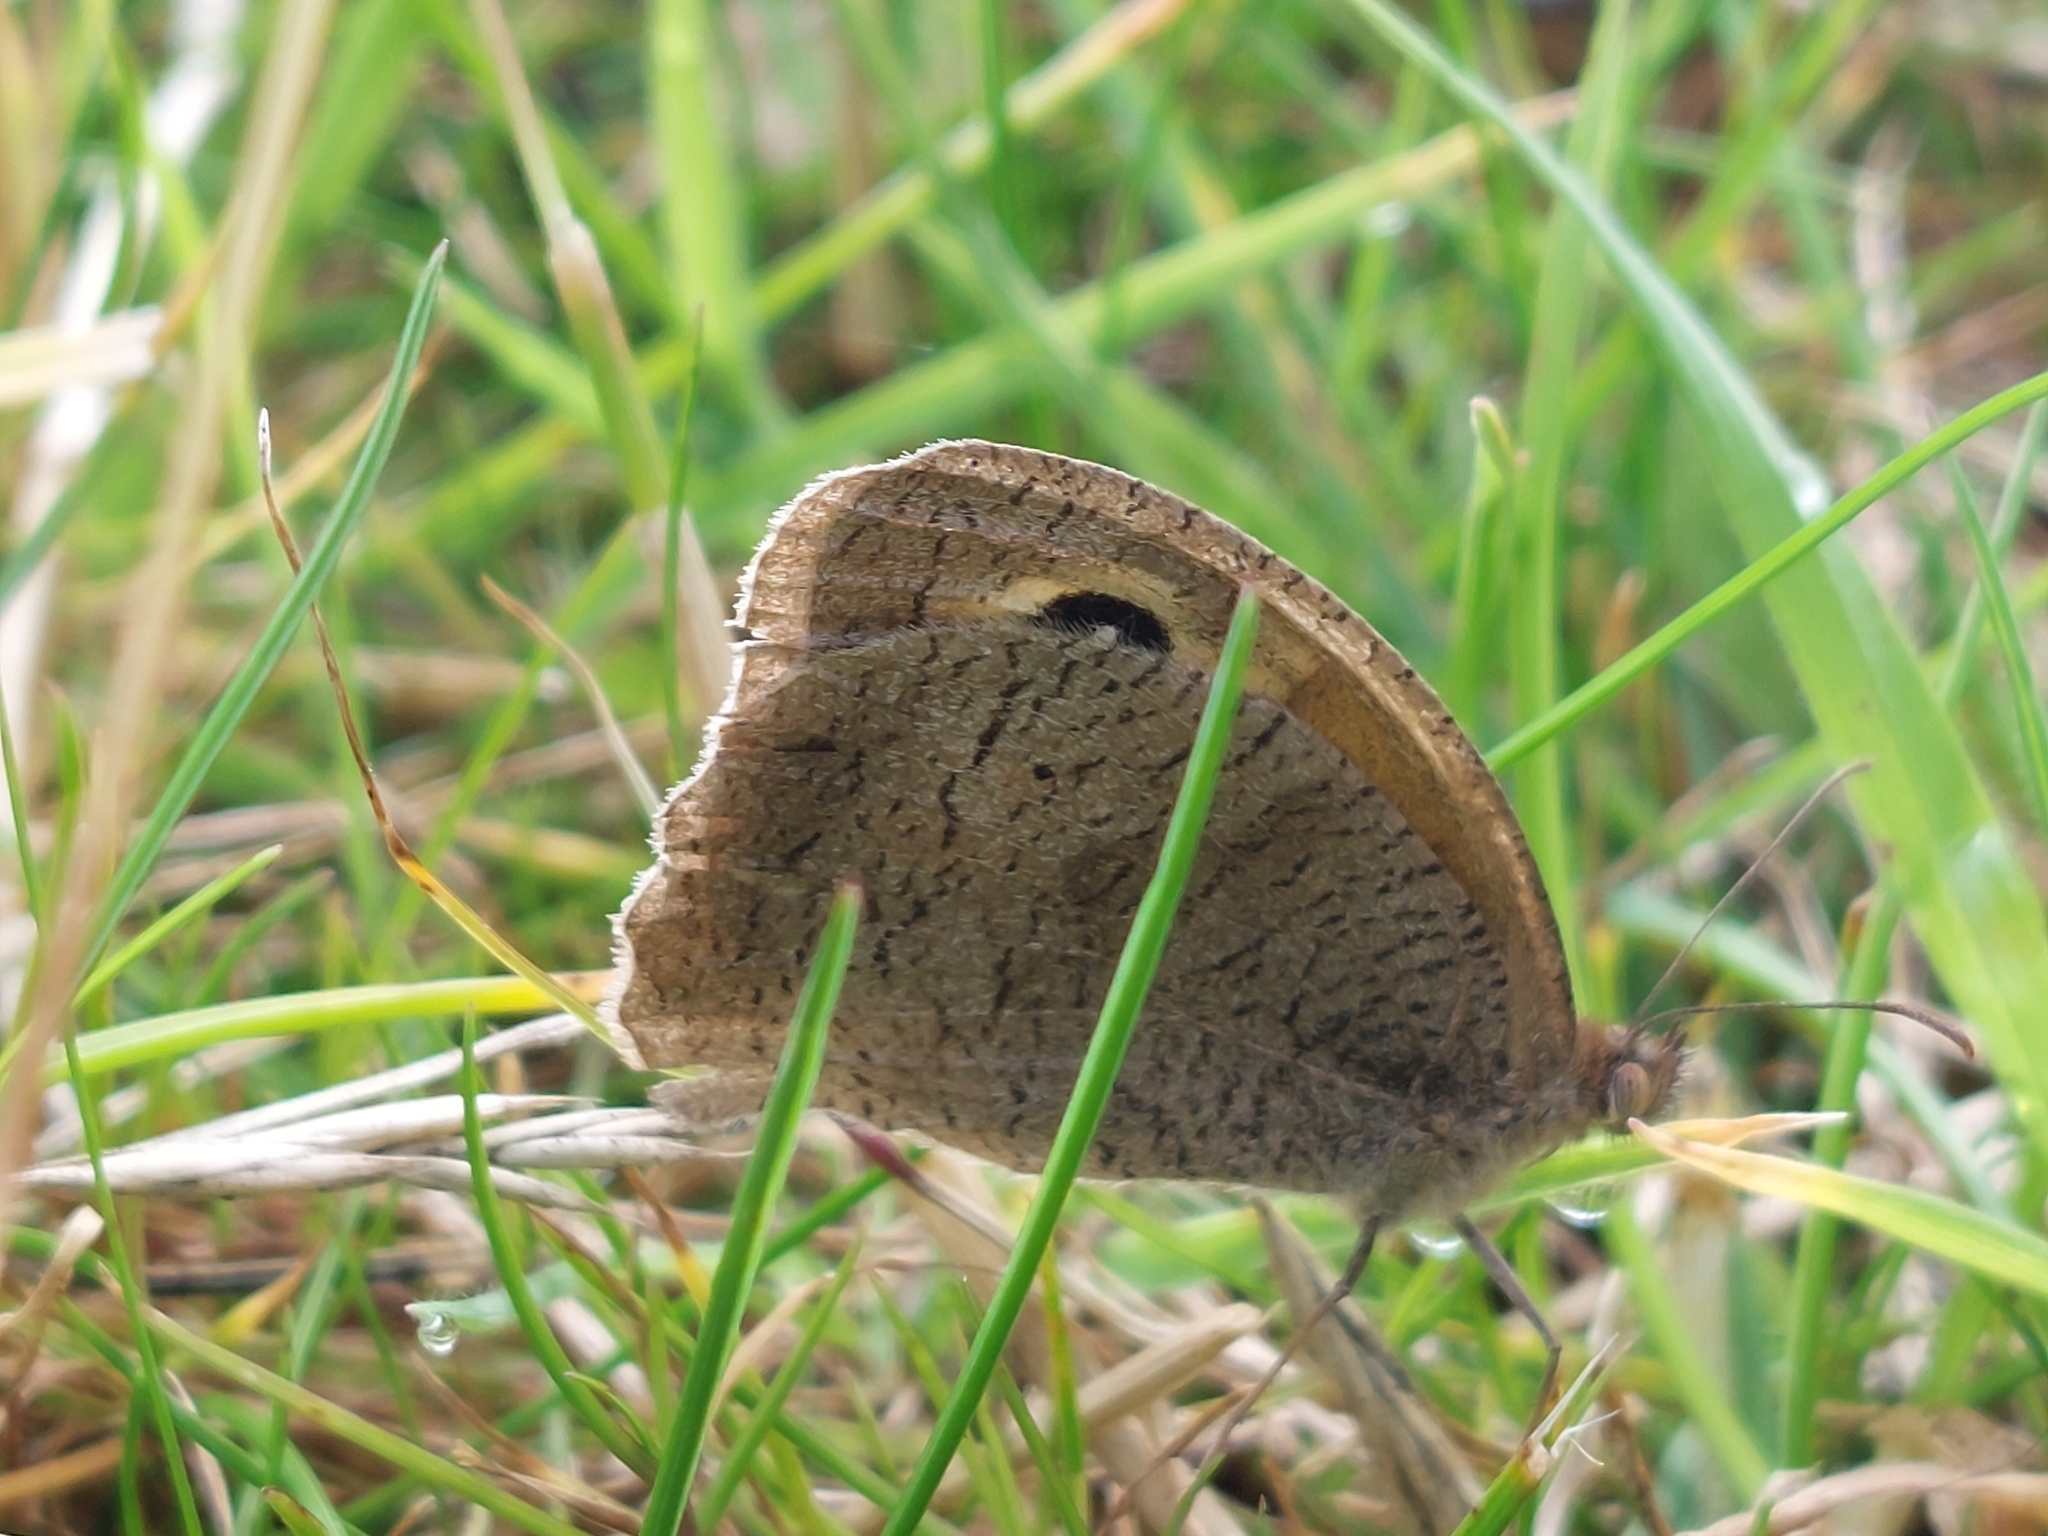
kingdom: Animalia
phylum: Arthropoda
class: Insecta
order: Lepidoptera
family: Nymphalidae
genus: Maniola
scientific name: Maniola jurtina
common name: Meadow brown
